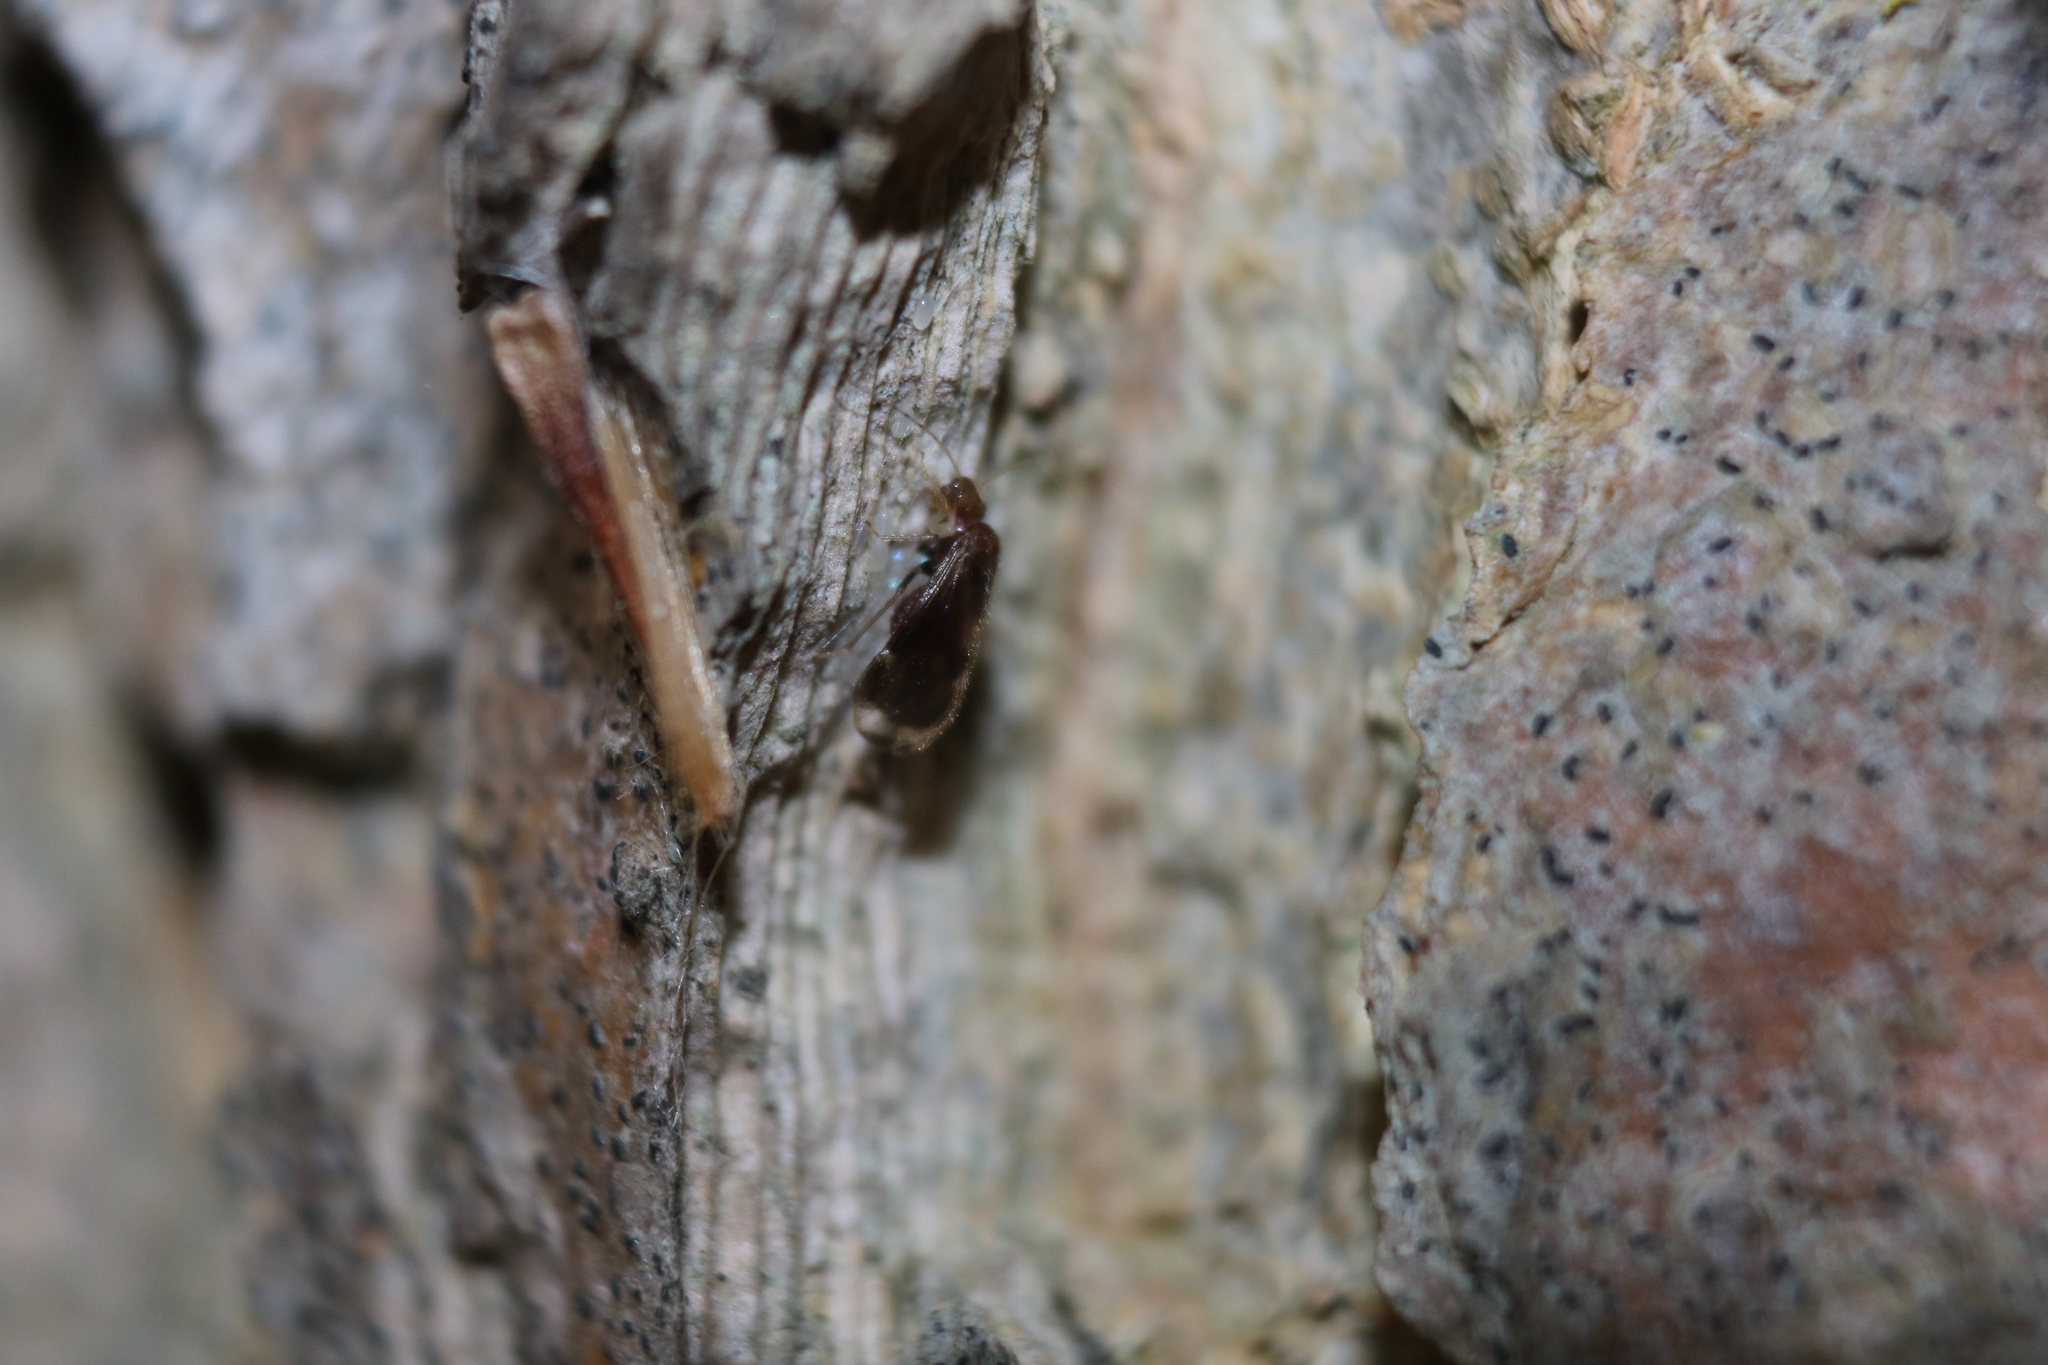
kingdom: Animalia
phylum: Arthropoda
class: Insecta
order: Psocodea
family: Amphipsocidae
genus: Polypsocus
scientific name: Polypsocus corruptus
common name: Corrupt barklouse
